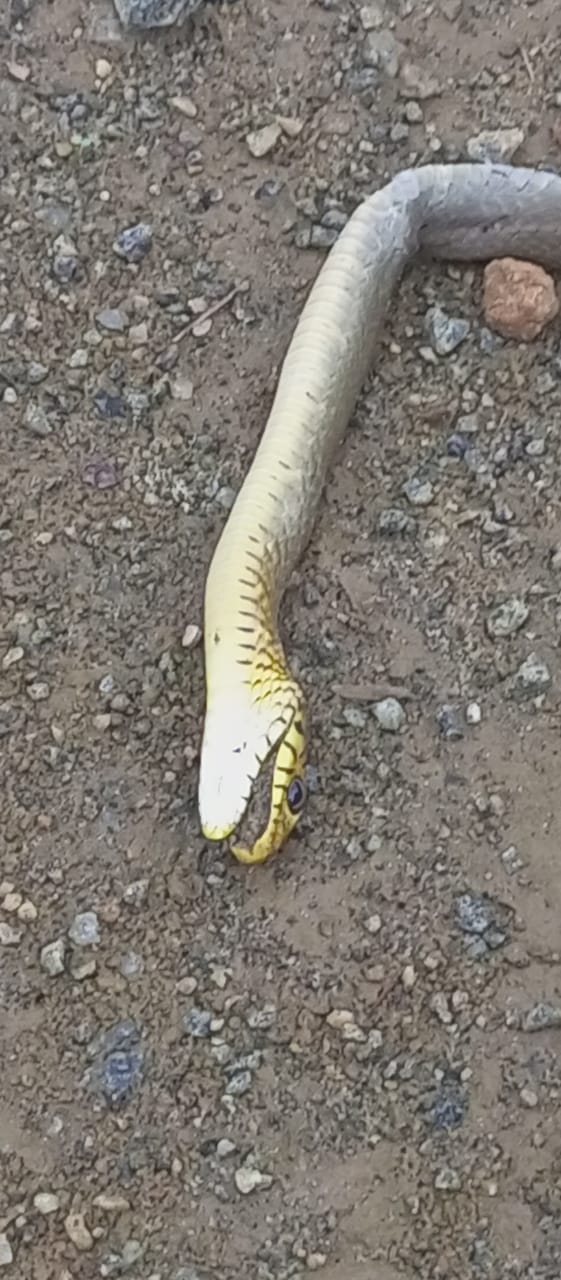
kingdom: Animalia
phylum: Chordata
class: Squamata
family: Colubridae
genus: Ptyas
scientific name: Ptyas mucosa
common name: Oriental ratsnake
